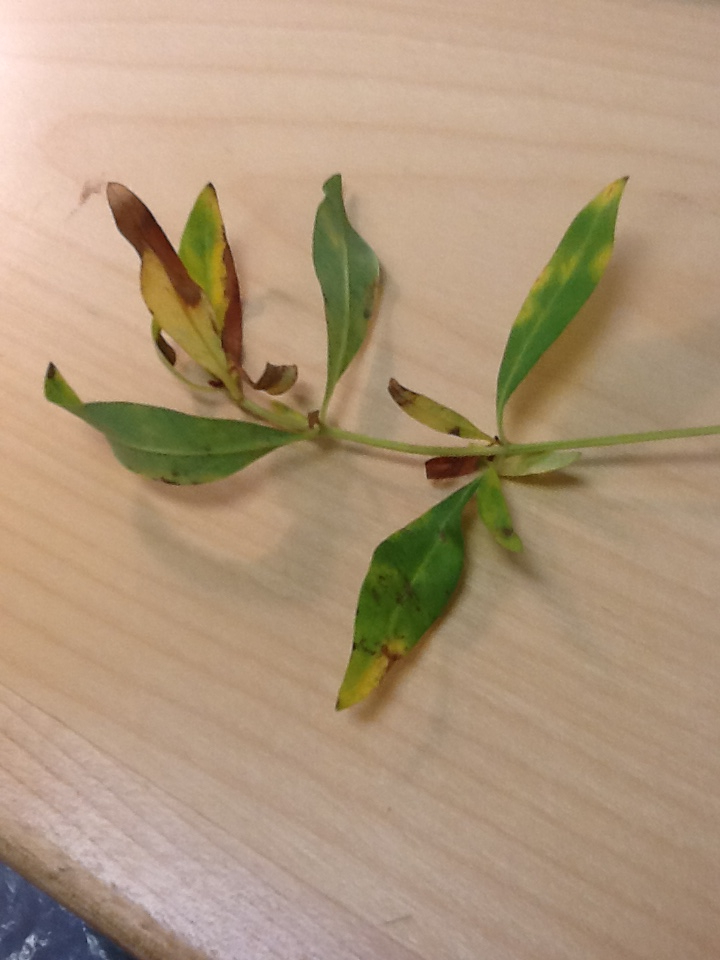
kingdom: Plantae
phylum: Tracheophyta
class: Magnoliopsida
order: Ericales
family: Primulaceae
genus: Lysimachia
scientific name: Lysimachia terrestris
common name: Lake loosestrife
